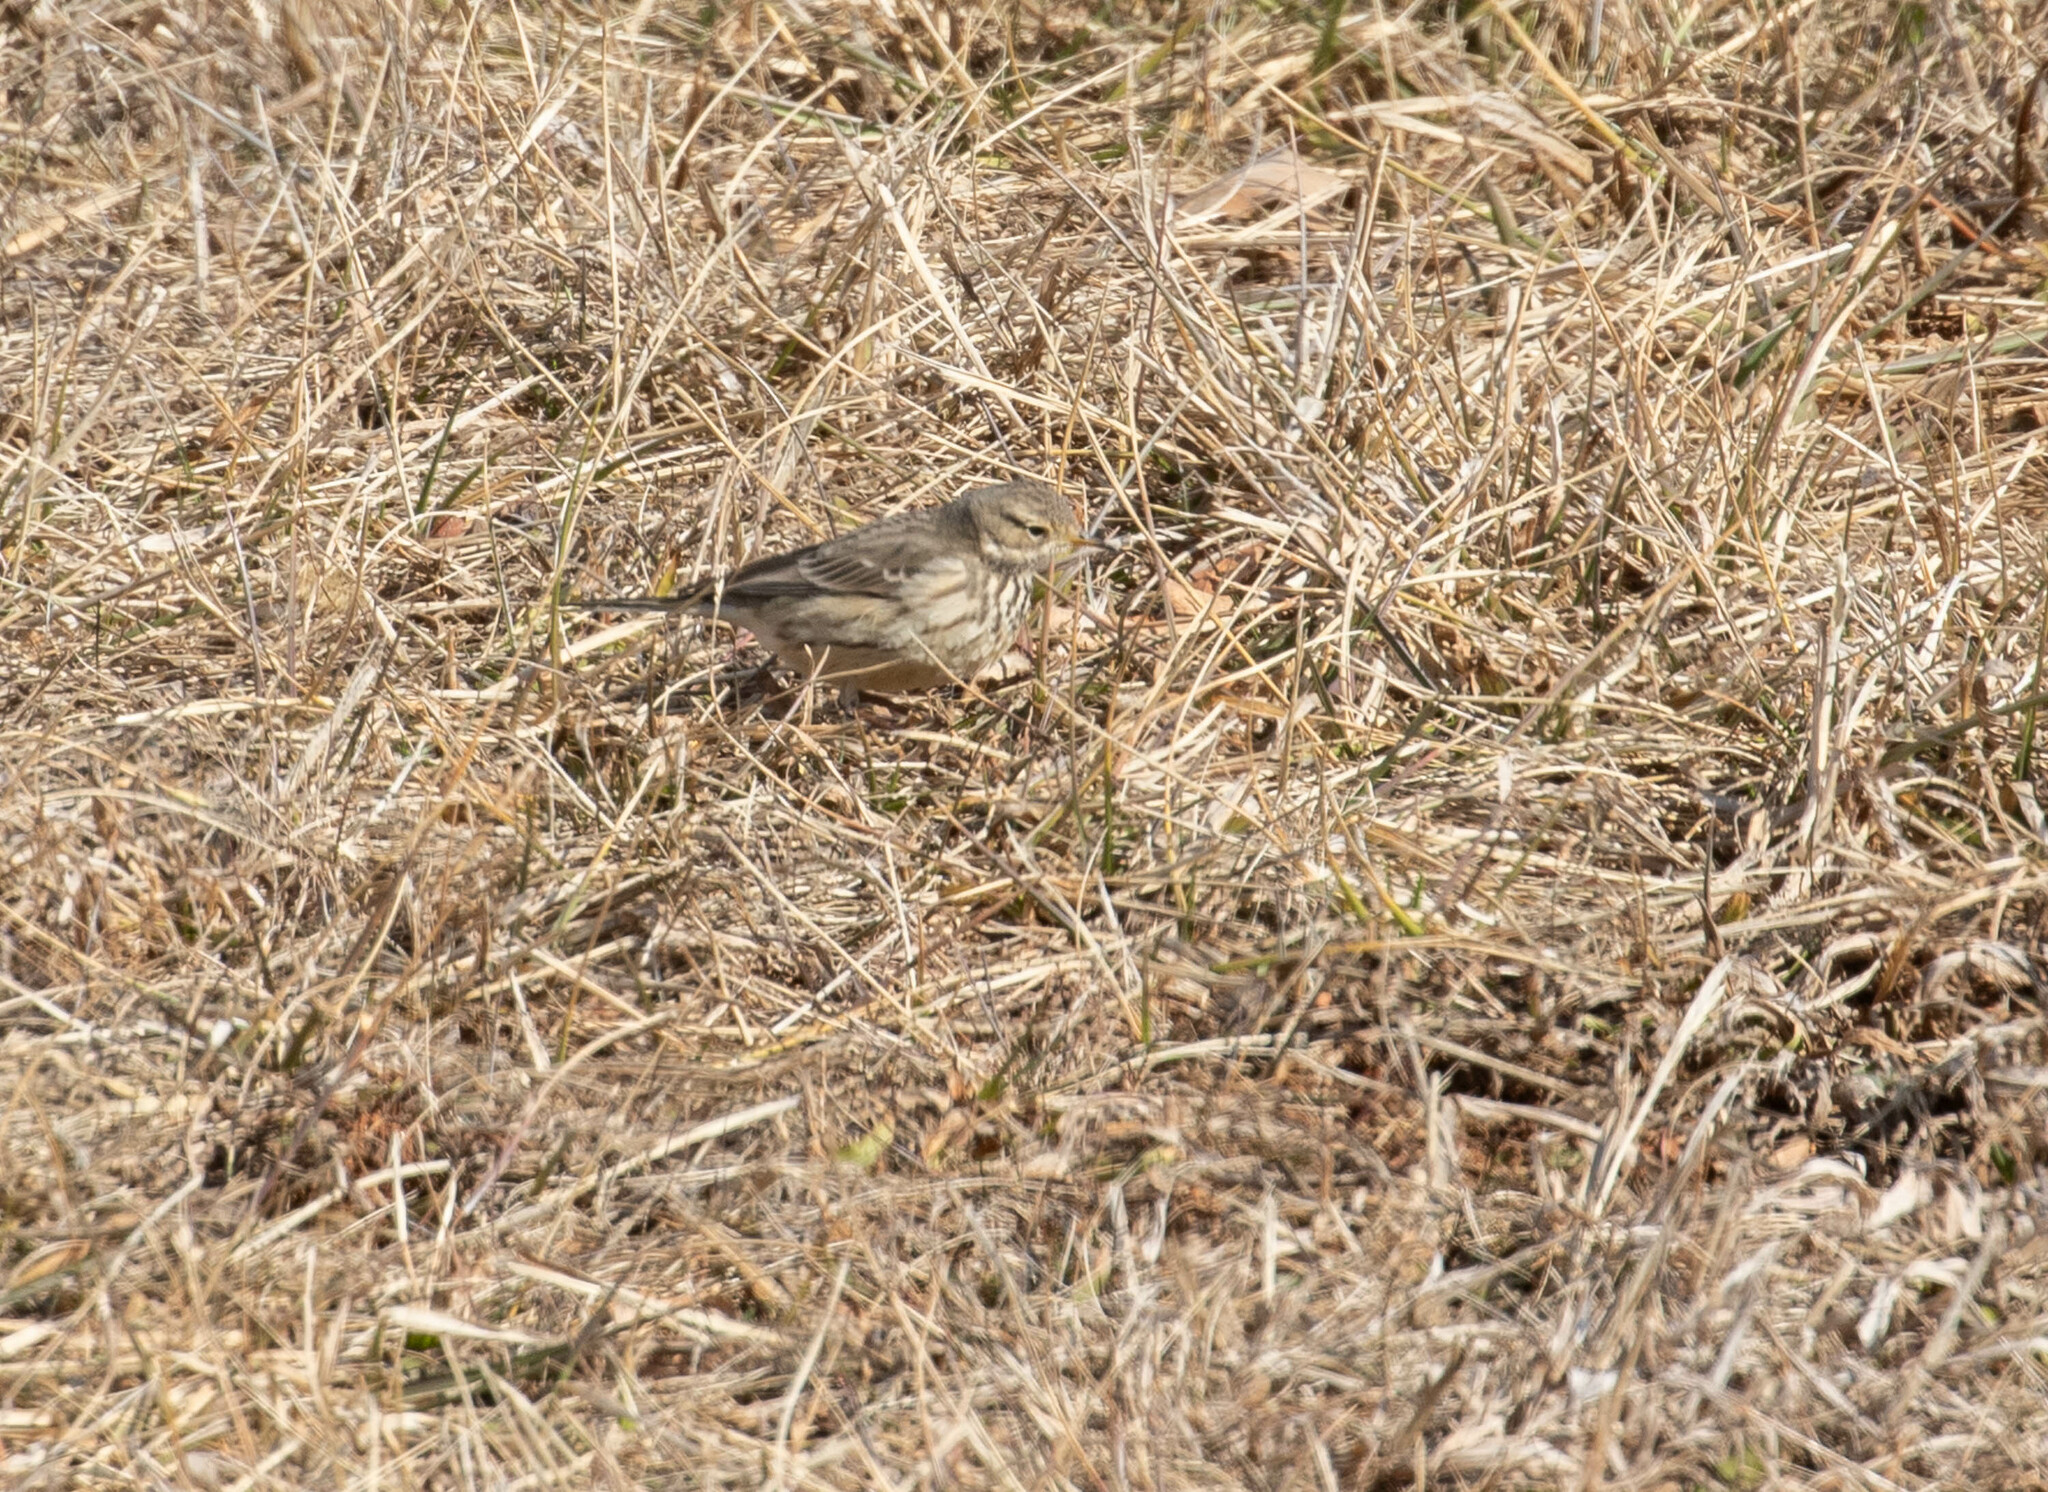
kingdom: Animalia
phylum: Chordata
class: Aves
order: Passeriformes
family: Motacillidae
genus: Anthus
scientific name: Anthus rubescens
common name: Buff-bellied pipit
